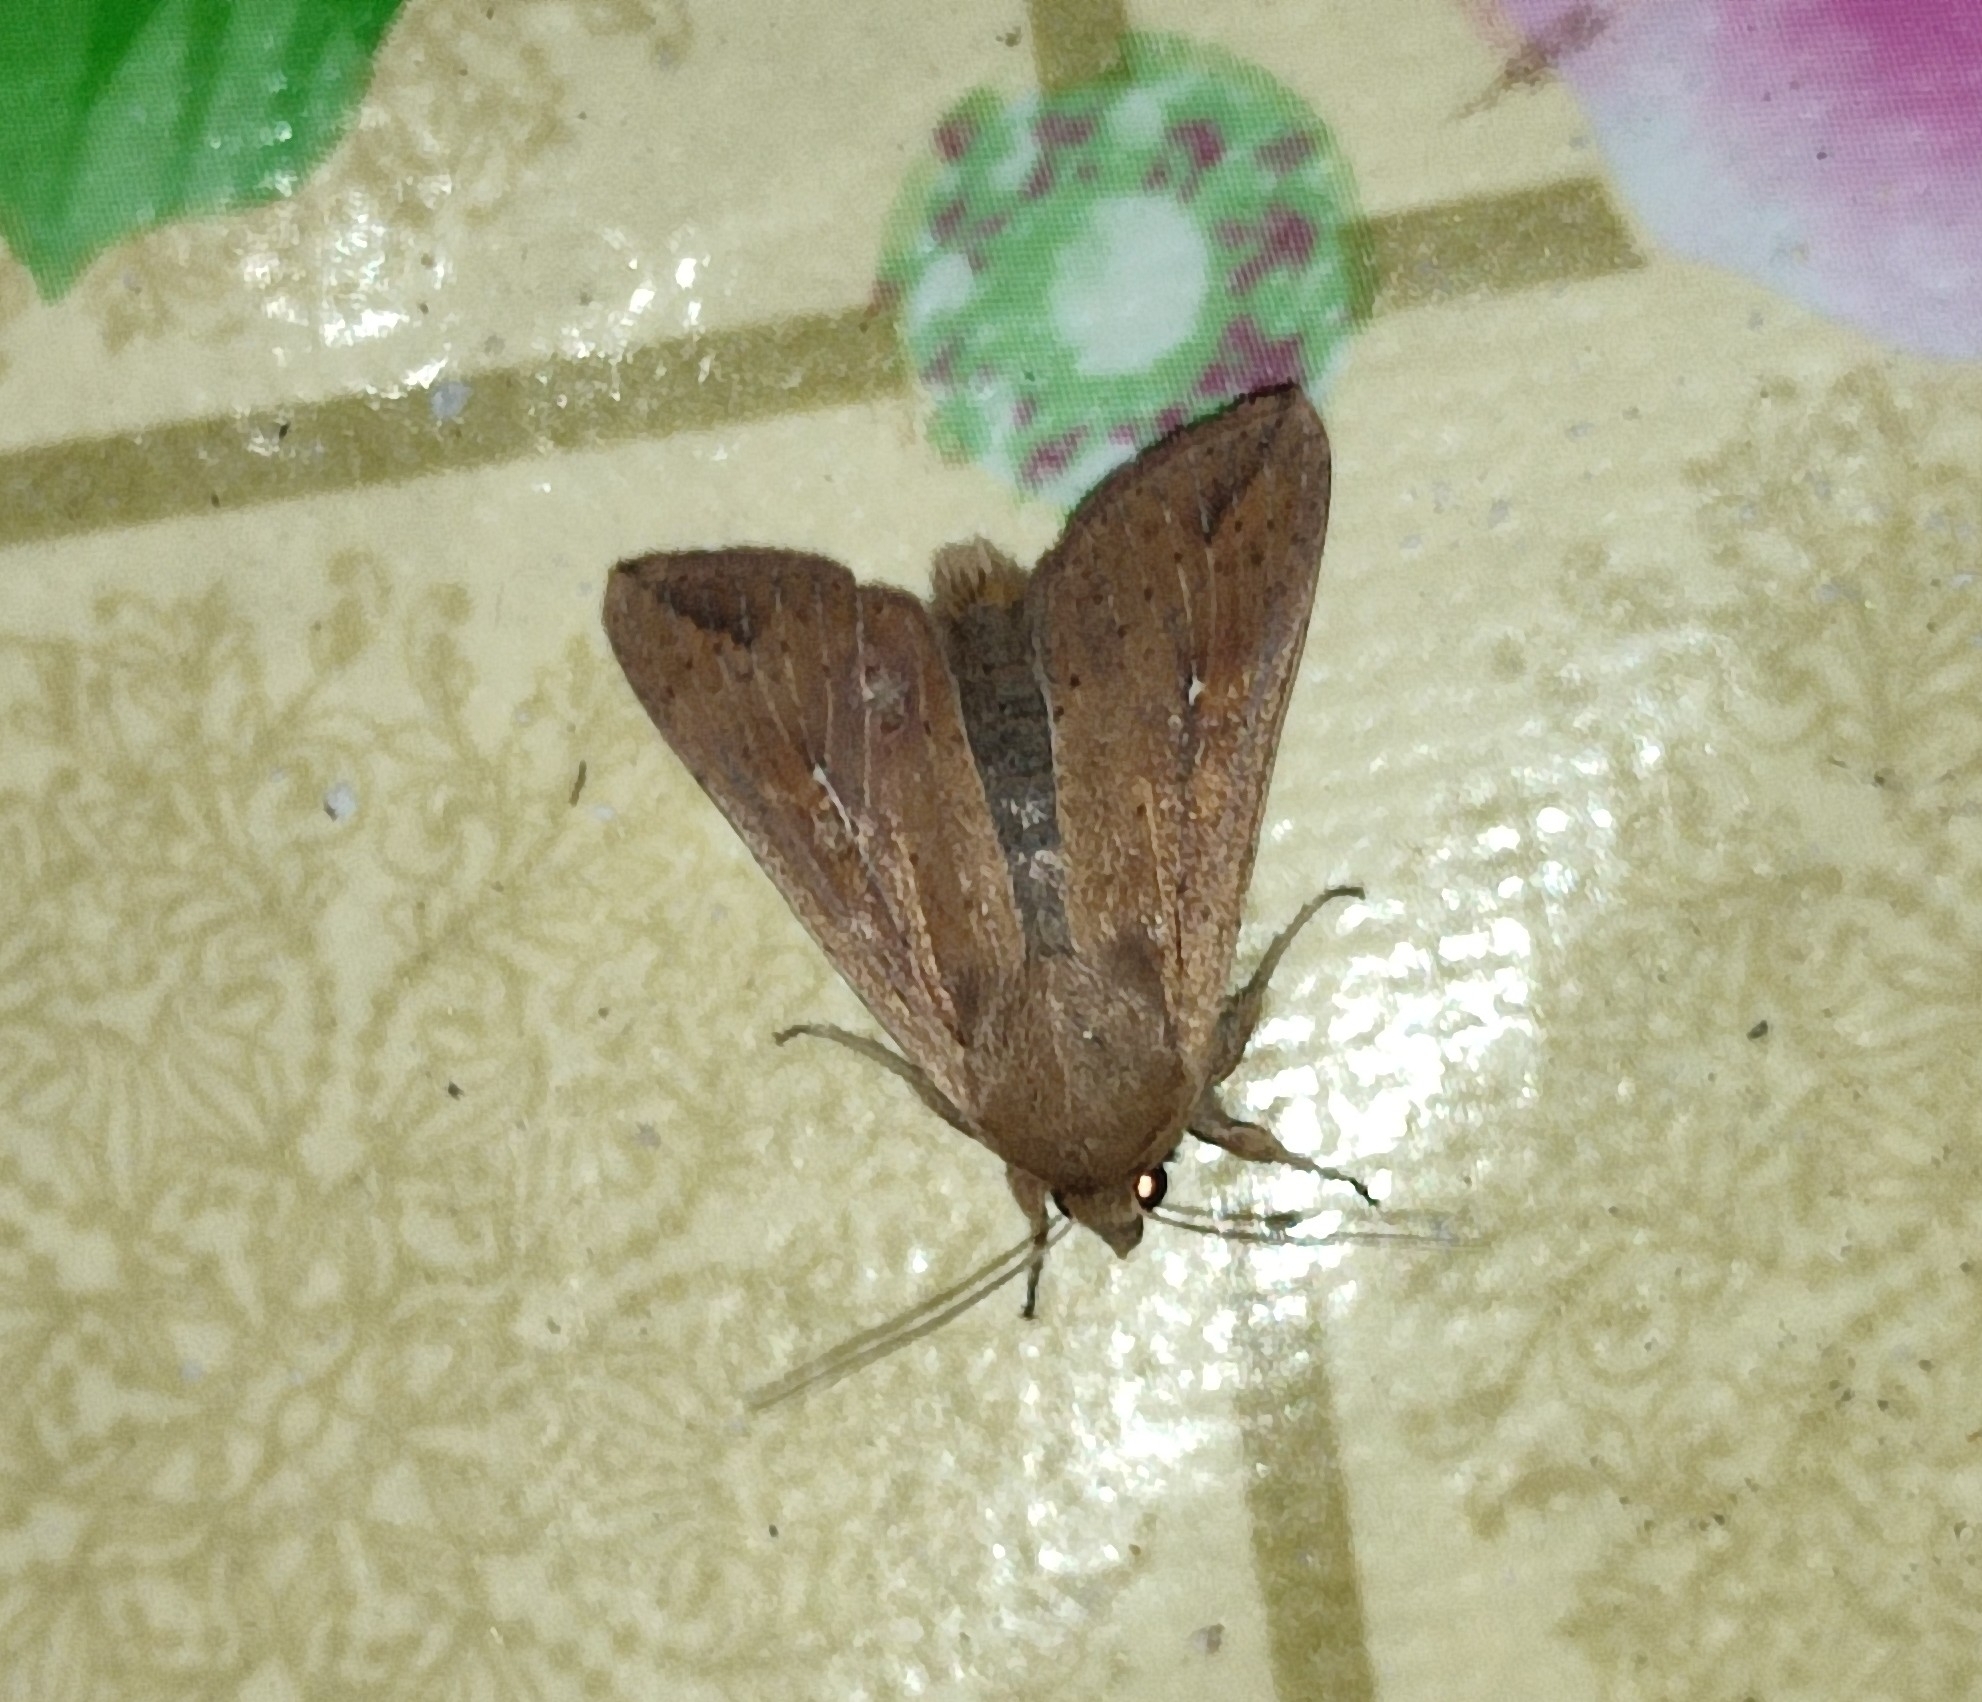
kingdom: Animalia
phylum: Arthropoda
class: Insecta
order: Lepidoptera
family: Noctuidae
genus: Mythimna
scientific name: Mythimna unipuncta
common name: White-speck
